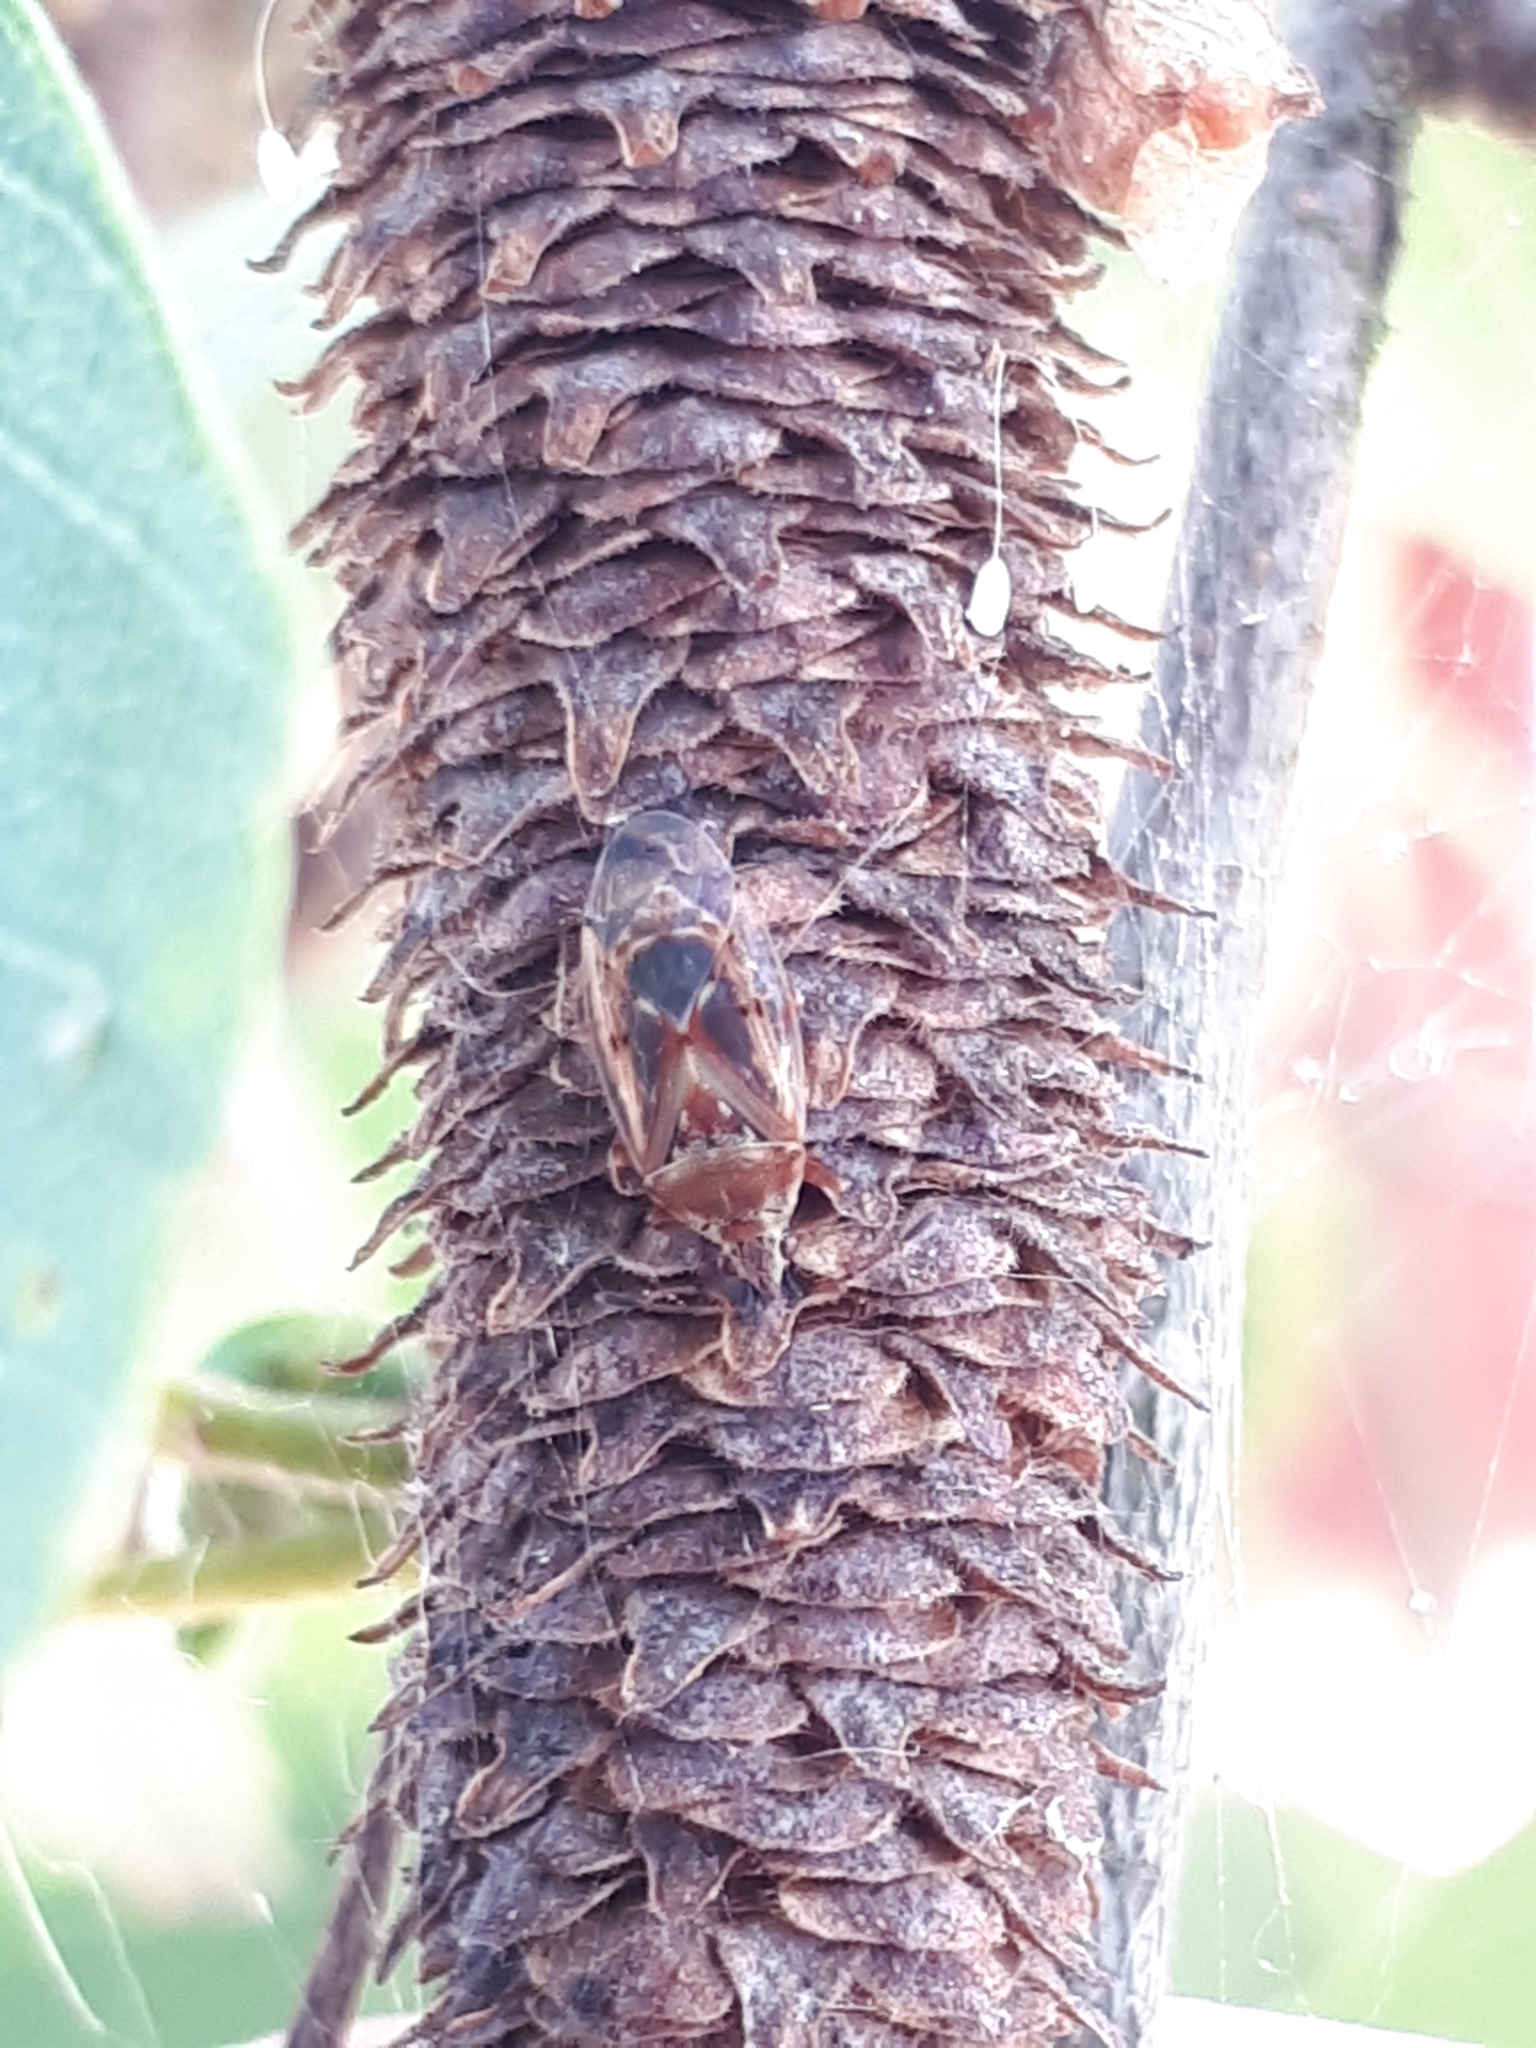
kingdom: Animalia
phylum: Arthropoda
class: Insecta
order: Hemiptera
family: Lygaeidae
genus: Kleidocerys
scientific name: Kleidocerys resedae
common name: Birch catkin bug
